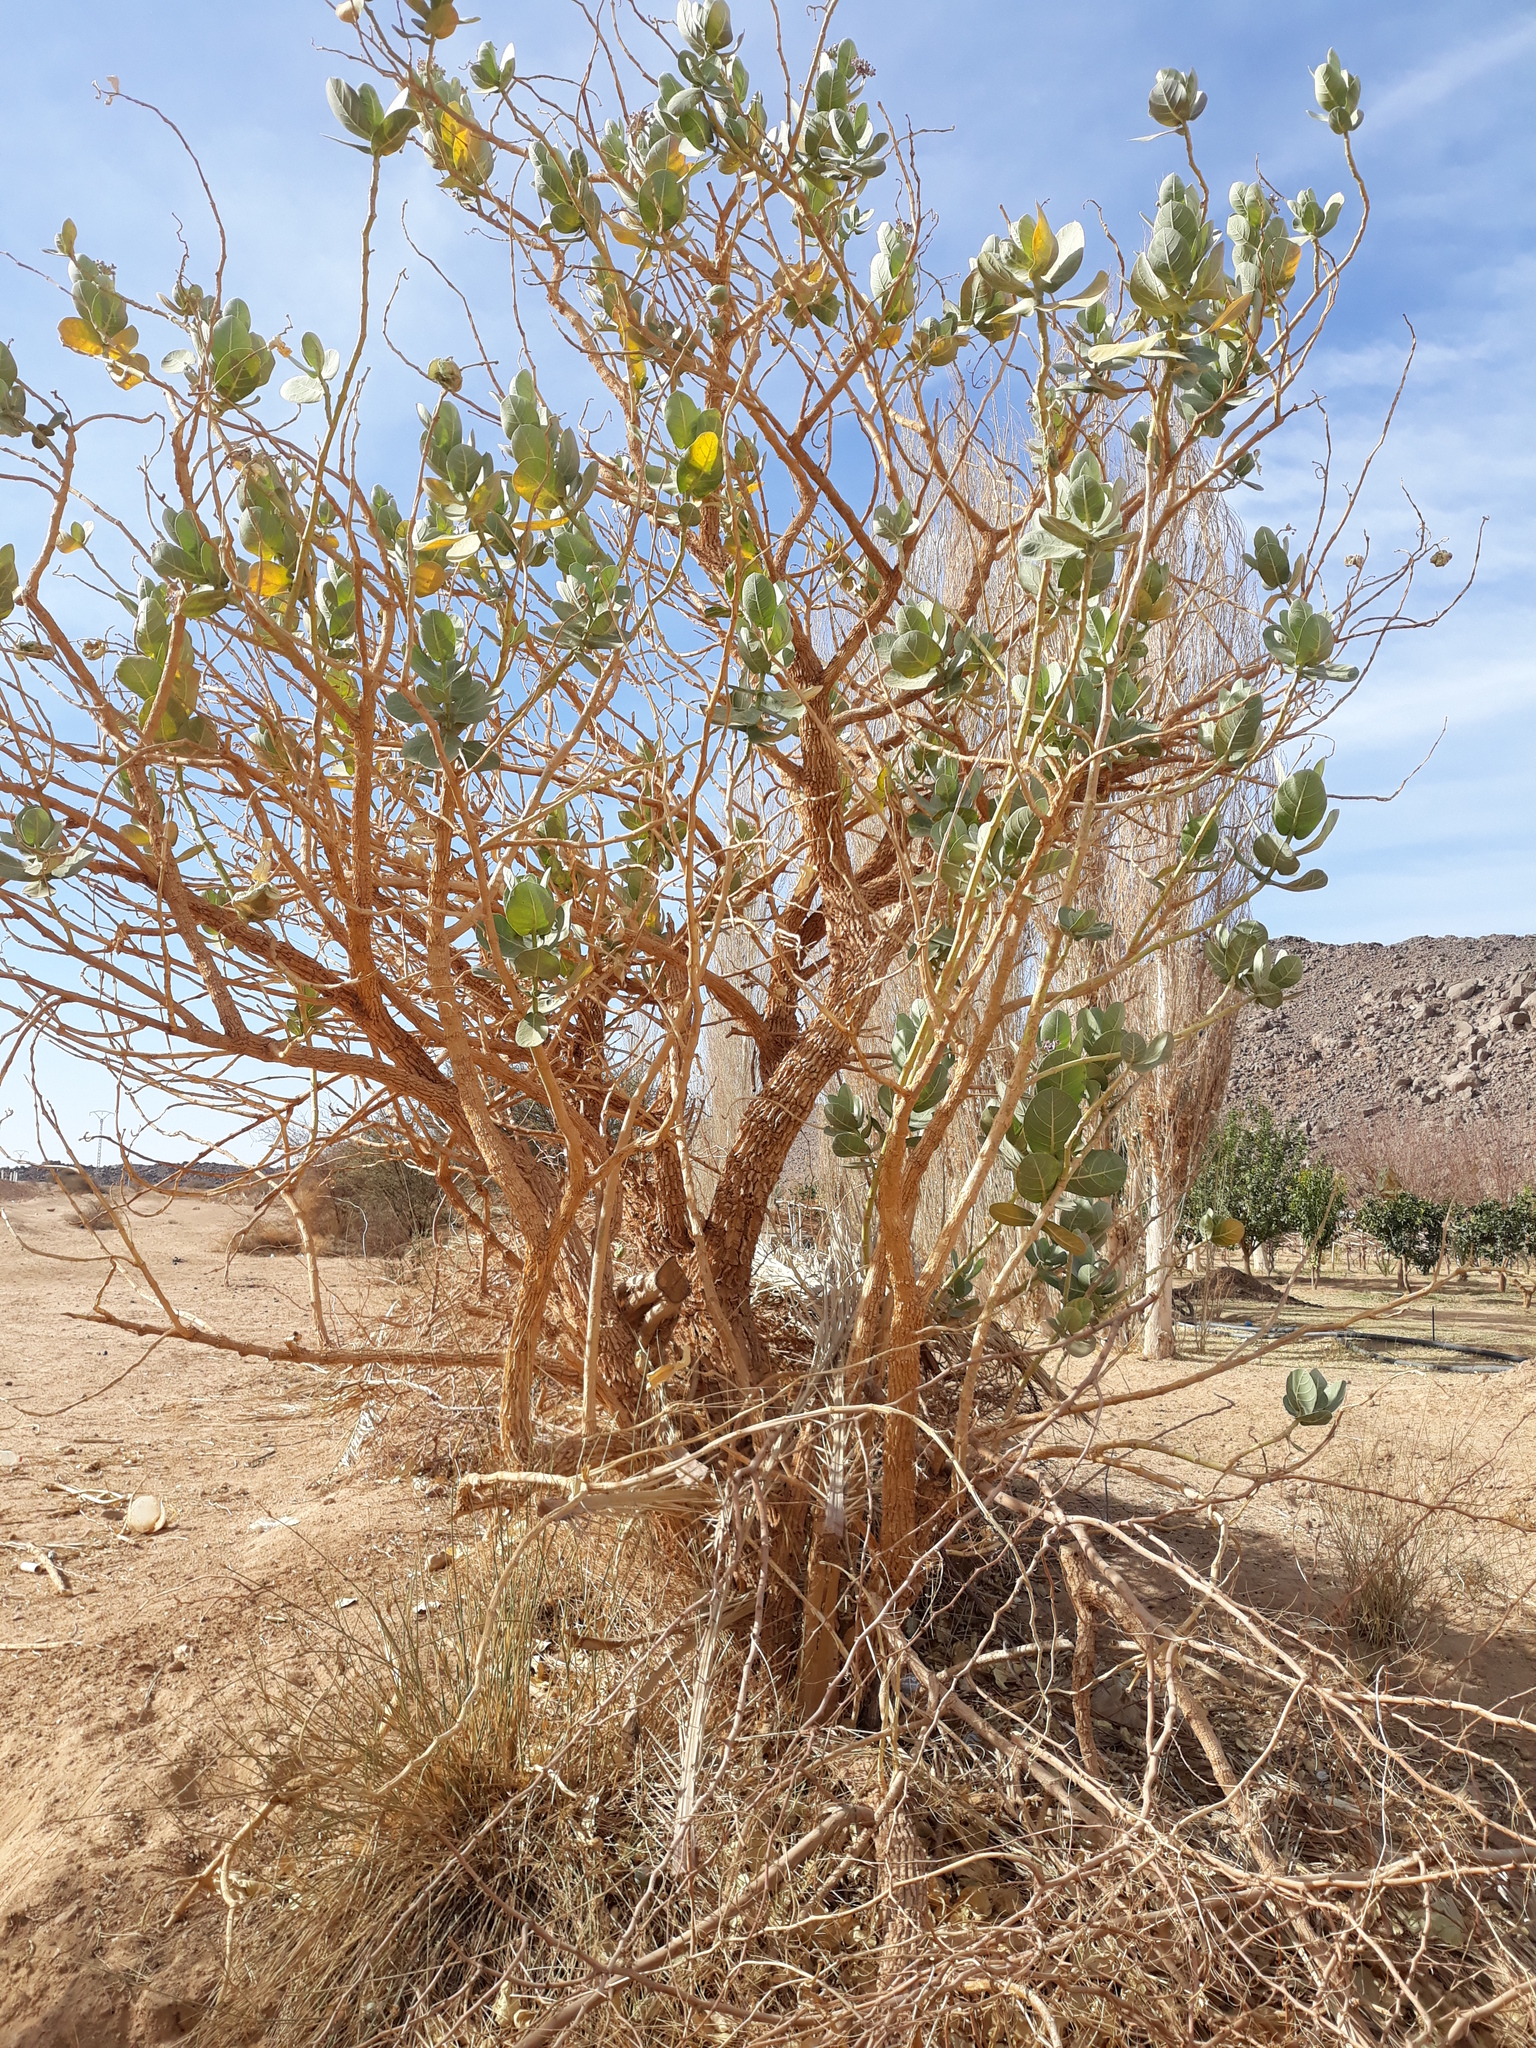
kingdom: Plantae
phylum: Tracheophyta
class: Magnoliopsida
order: Gentianales
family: Apocynaceae
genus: Calotropis
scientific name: Calotropis procera
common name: Roostertree
